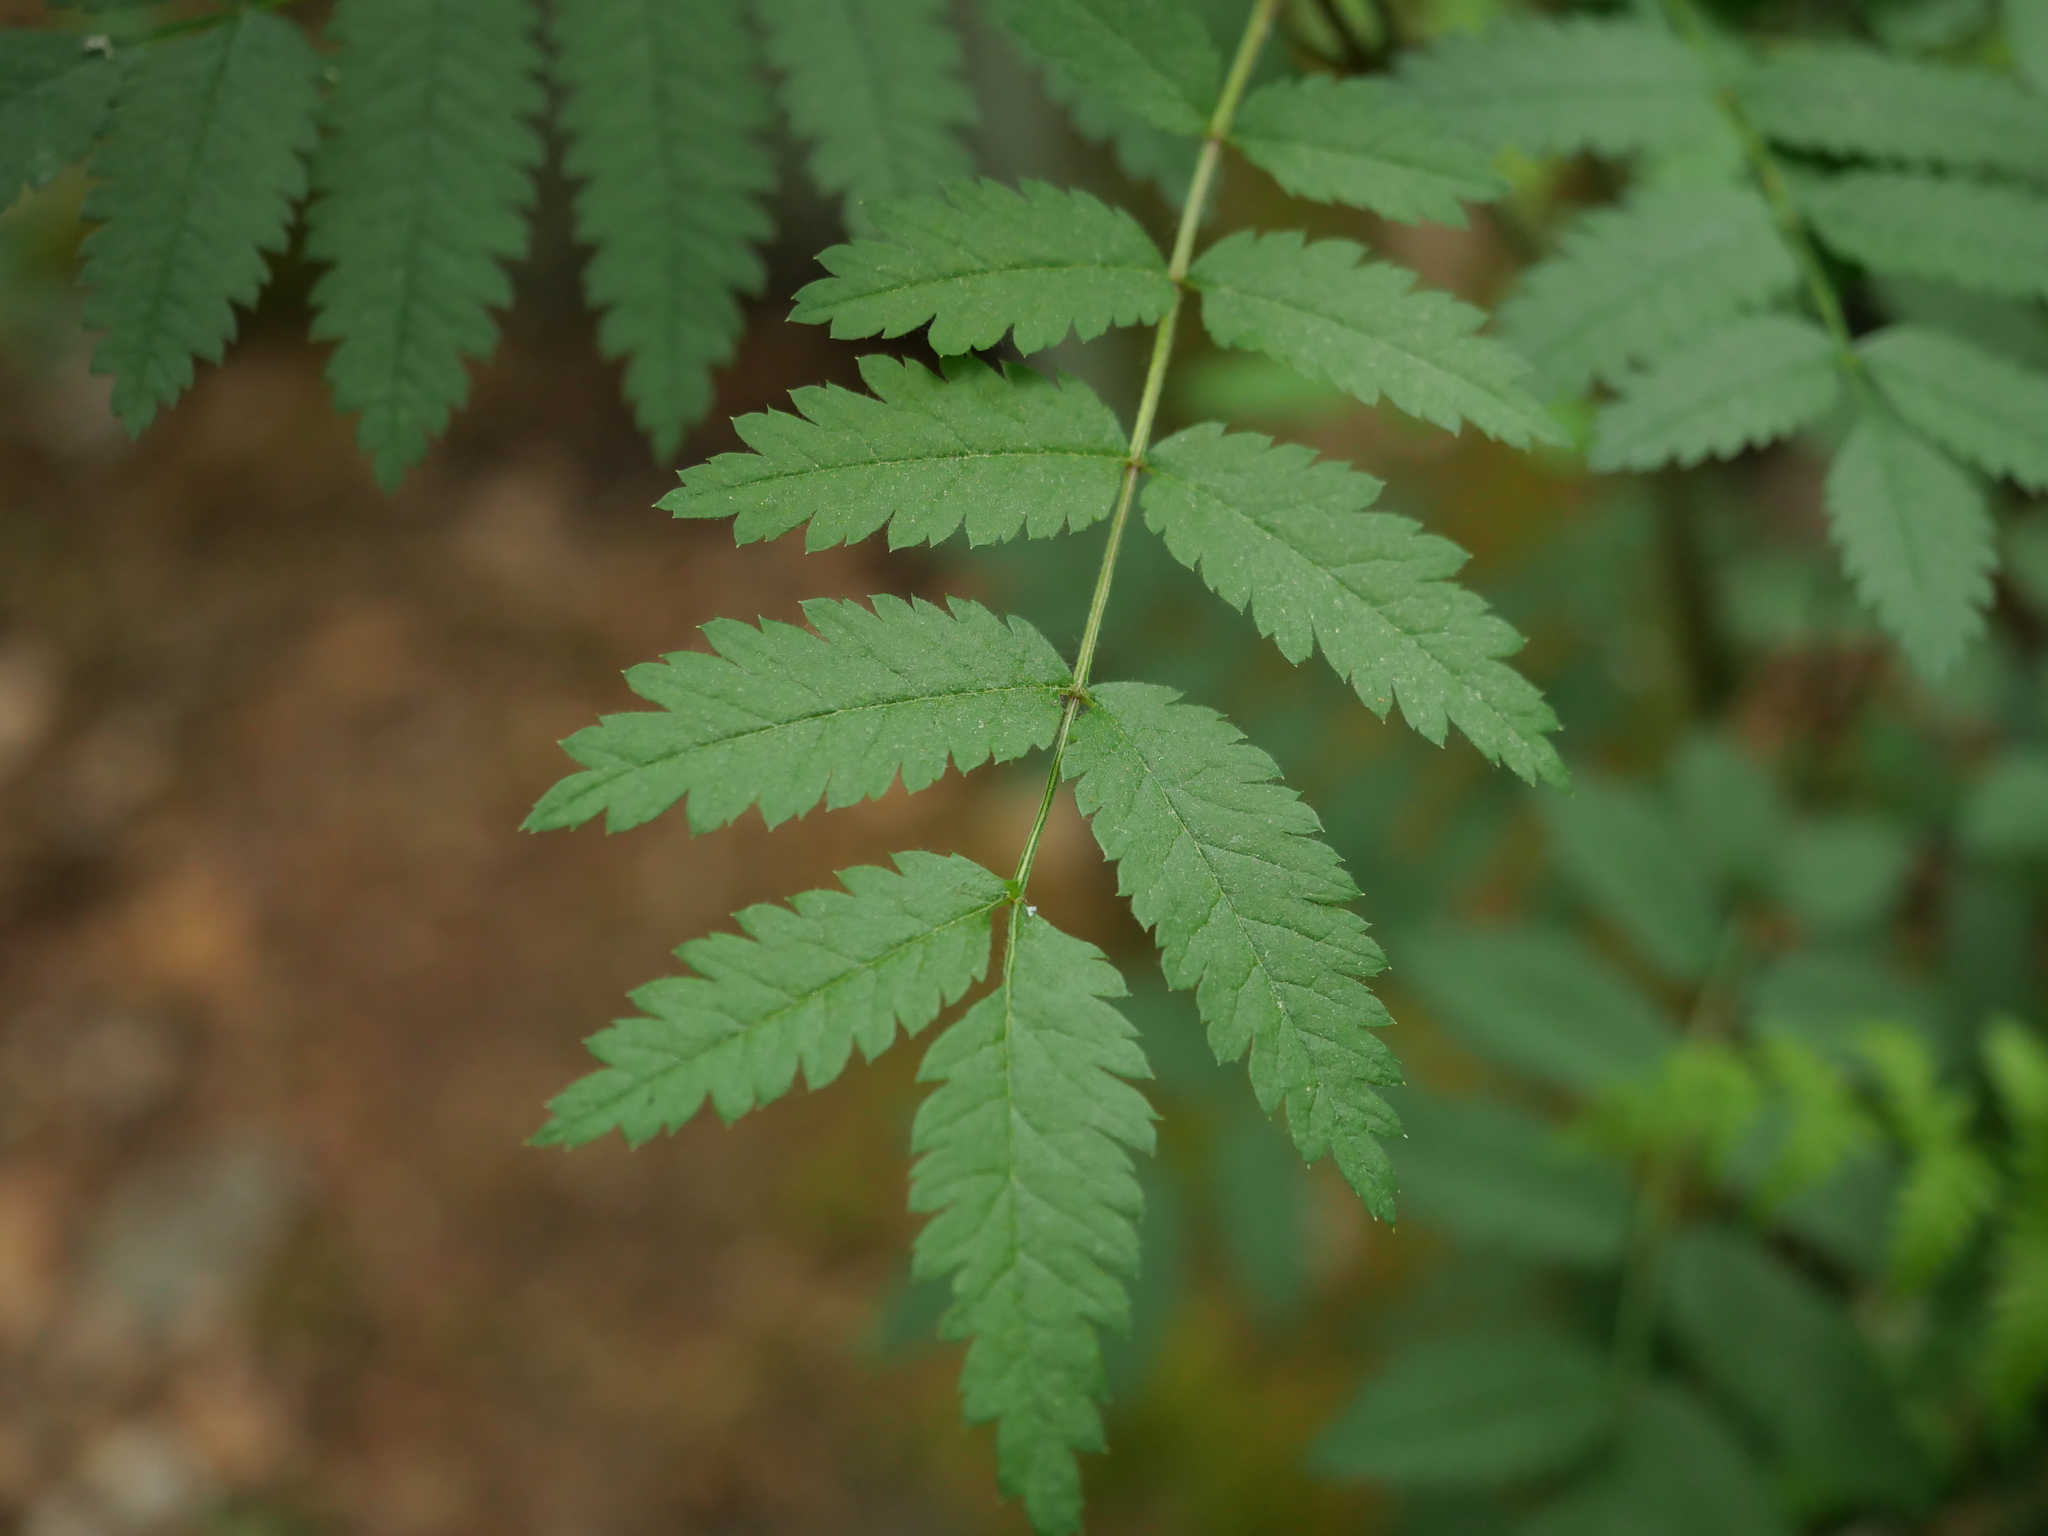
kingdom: Plantae
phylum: Tracheophyta
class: Magnoliopsida
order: Rosales
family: Rosaceae
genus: Sorbus
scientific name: Sorbus aucuparia
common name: Rowan
